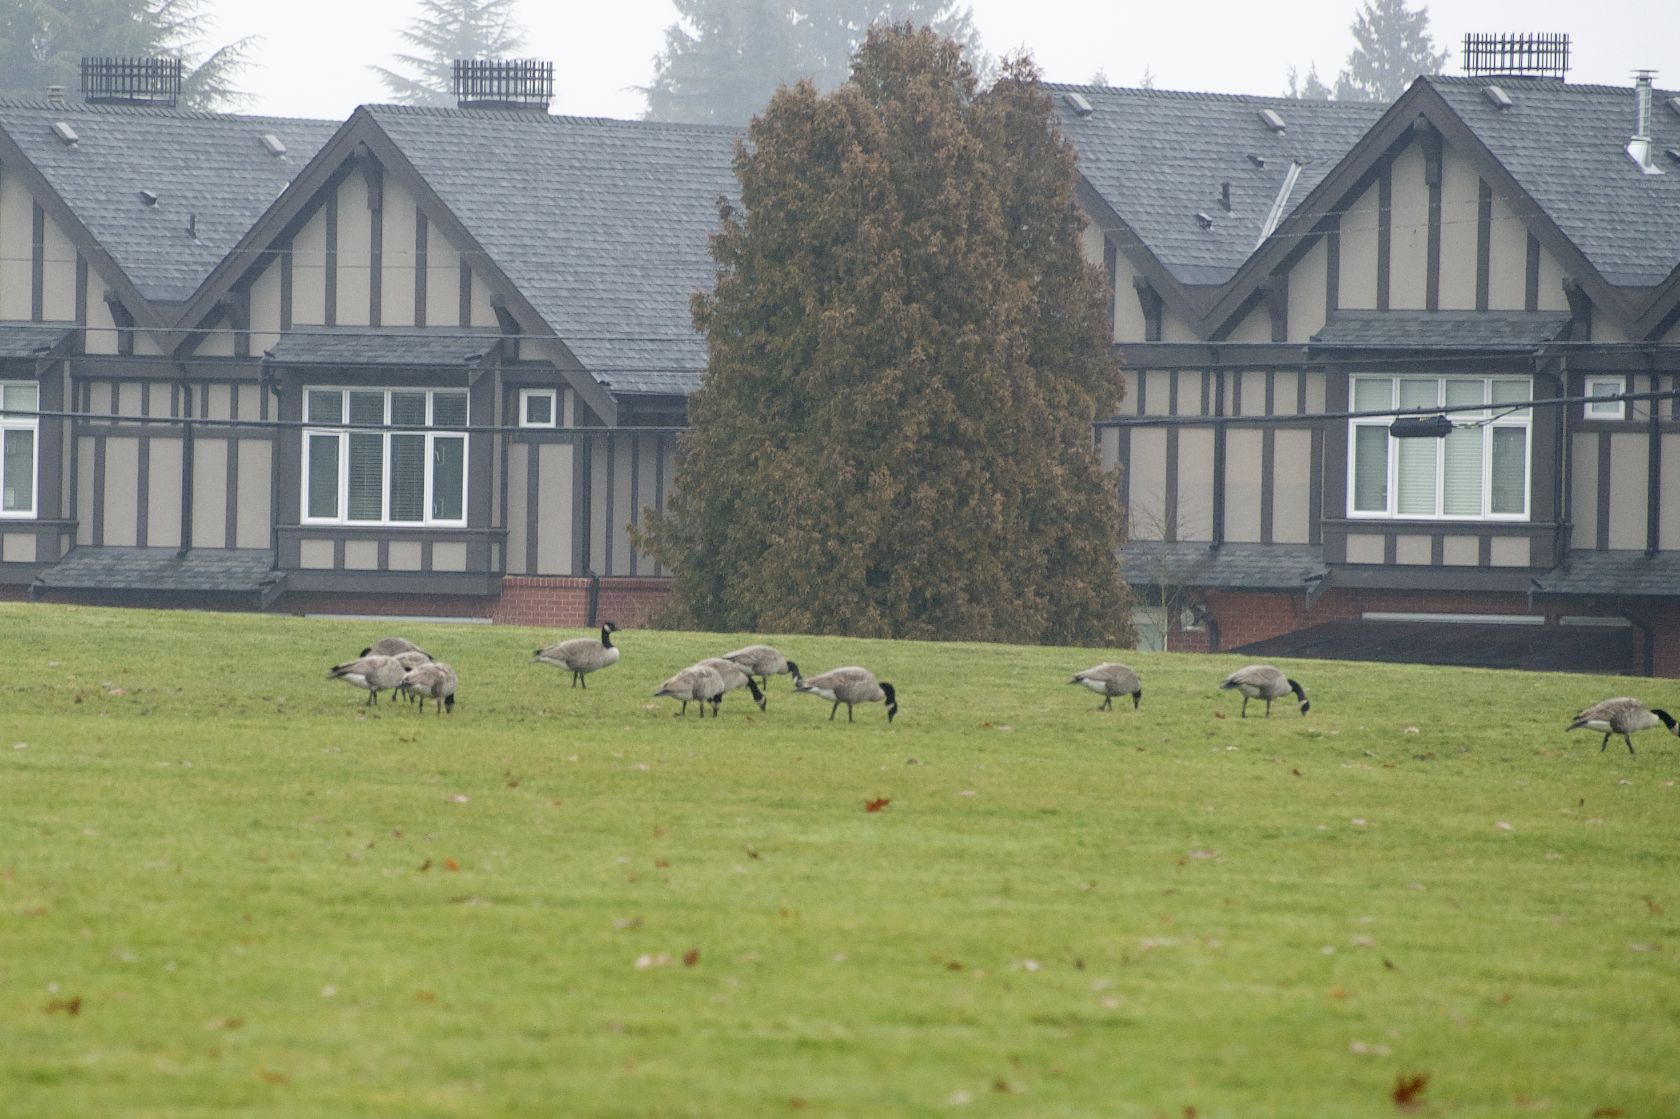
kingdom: Animalia
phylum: Chordata
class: Aves
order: Anseriformes
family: Anatidae
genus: Branta
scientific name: Branta canadensis
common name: Canada goose
